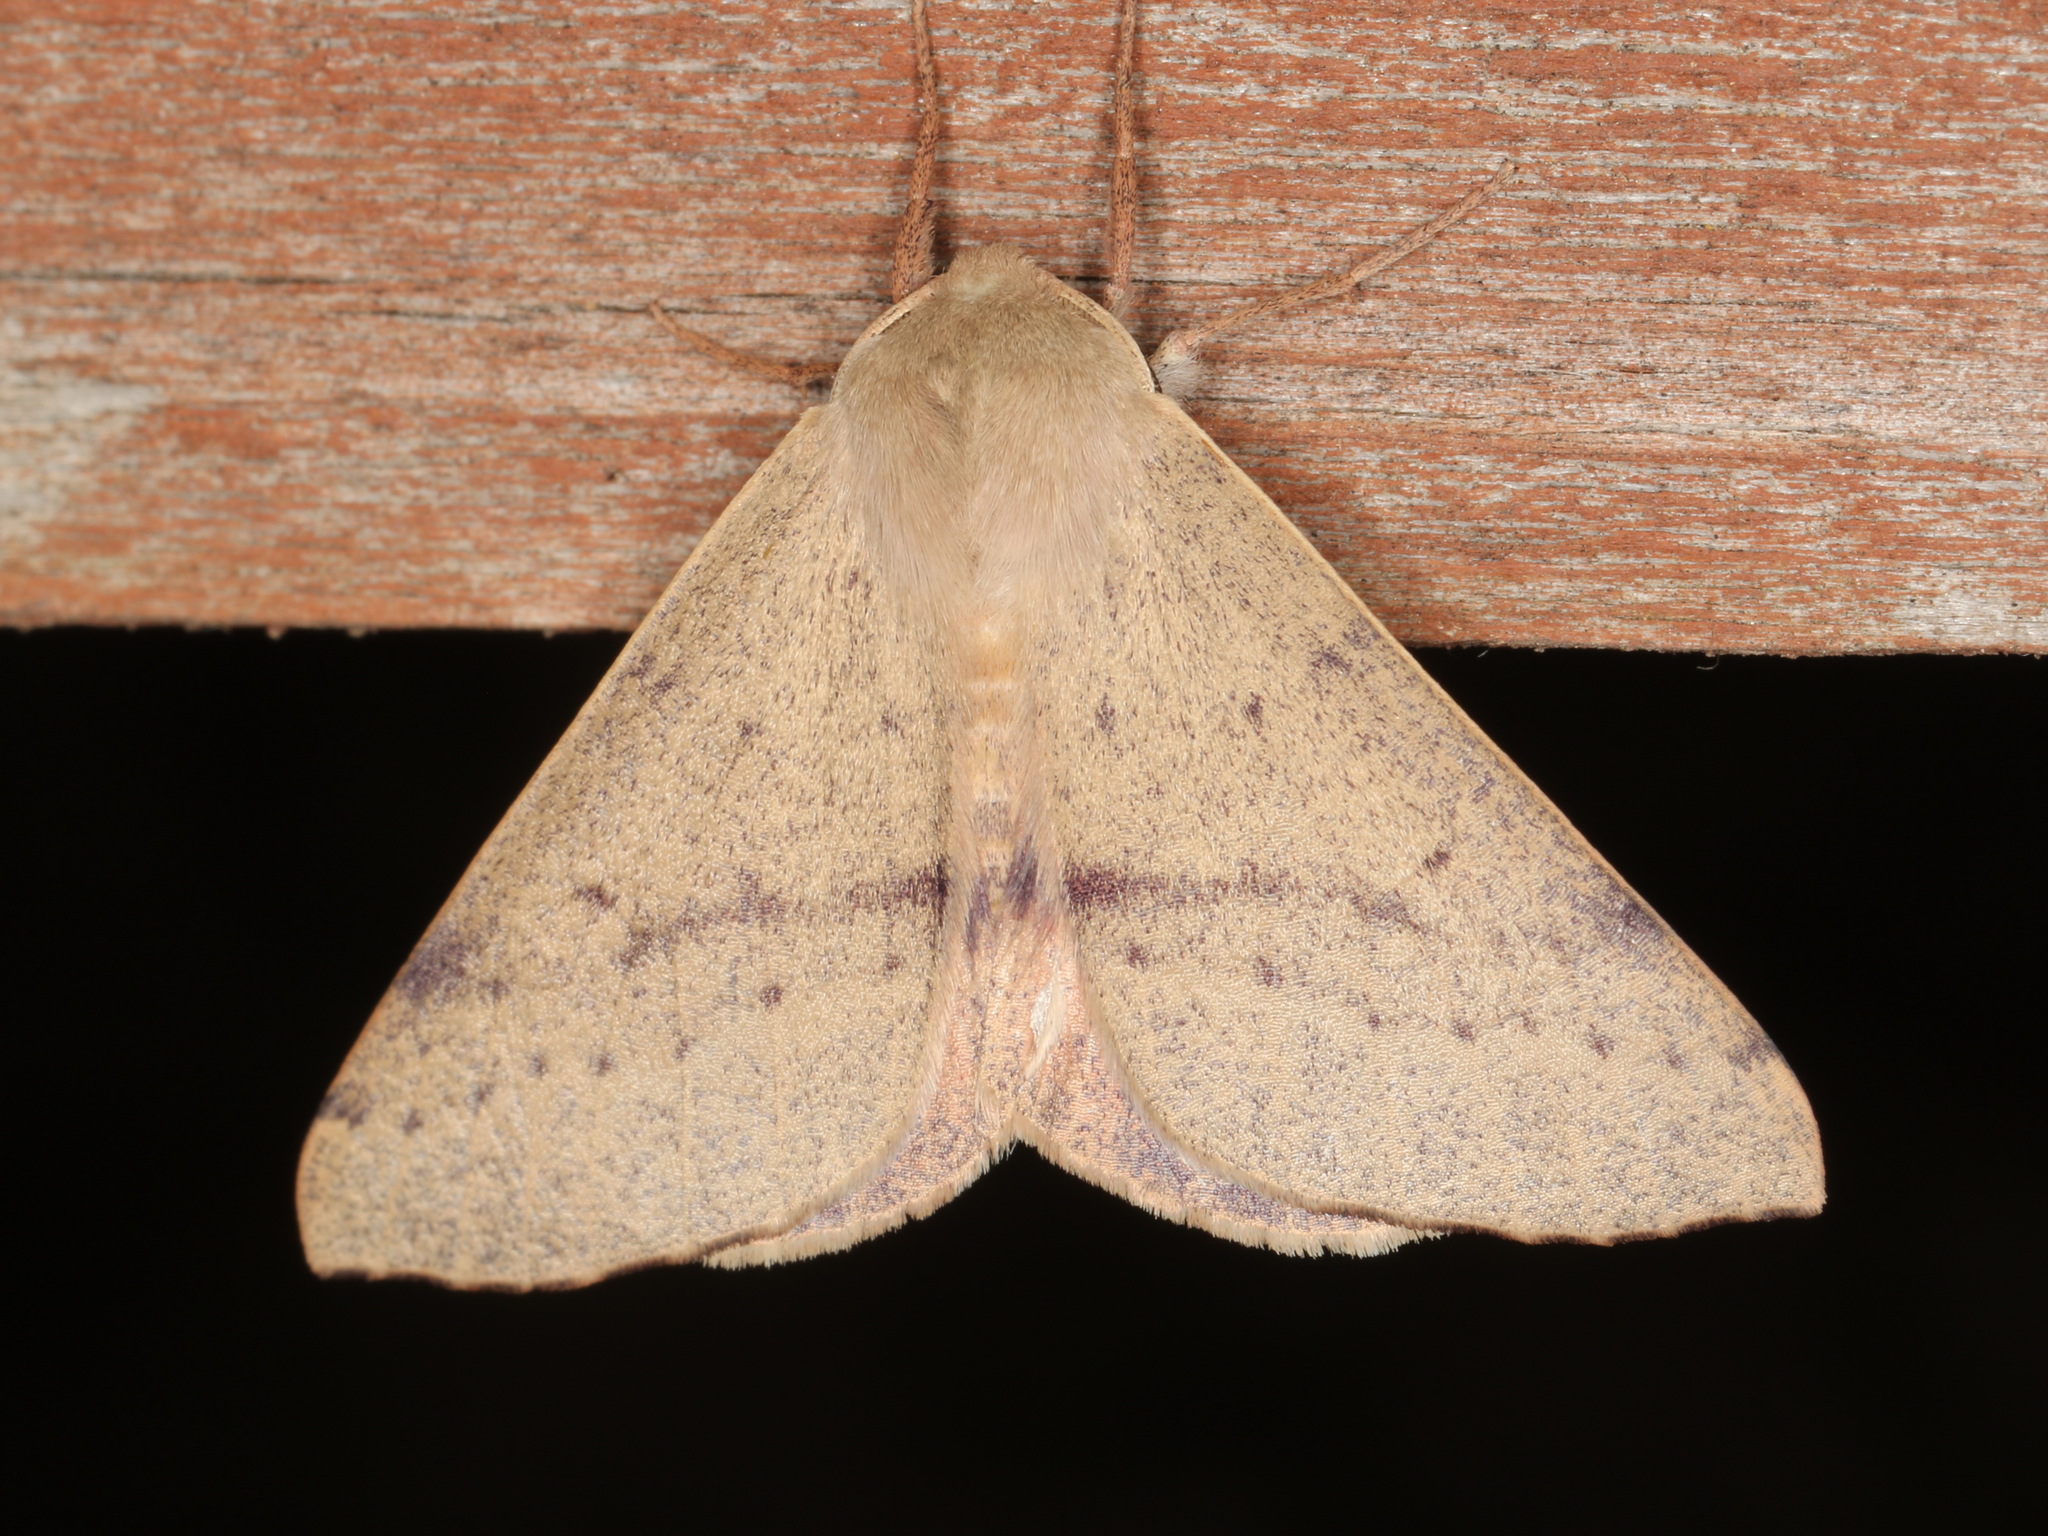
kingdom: Animalia
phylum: Arthropoda
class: Insecta
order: Lepidoptera
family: Geometridae
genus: Arhodia
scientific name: Arhodia lasiocamparia
